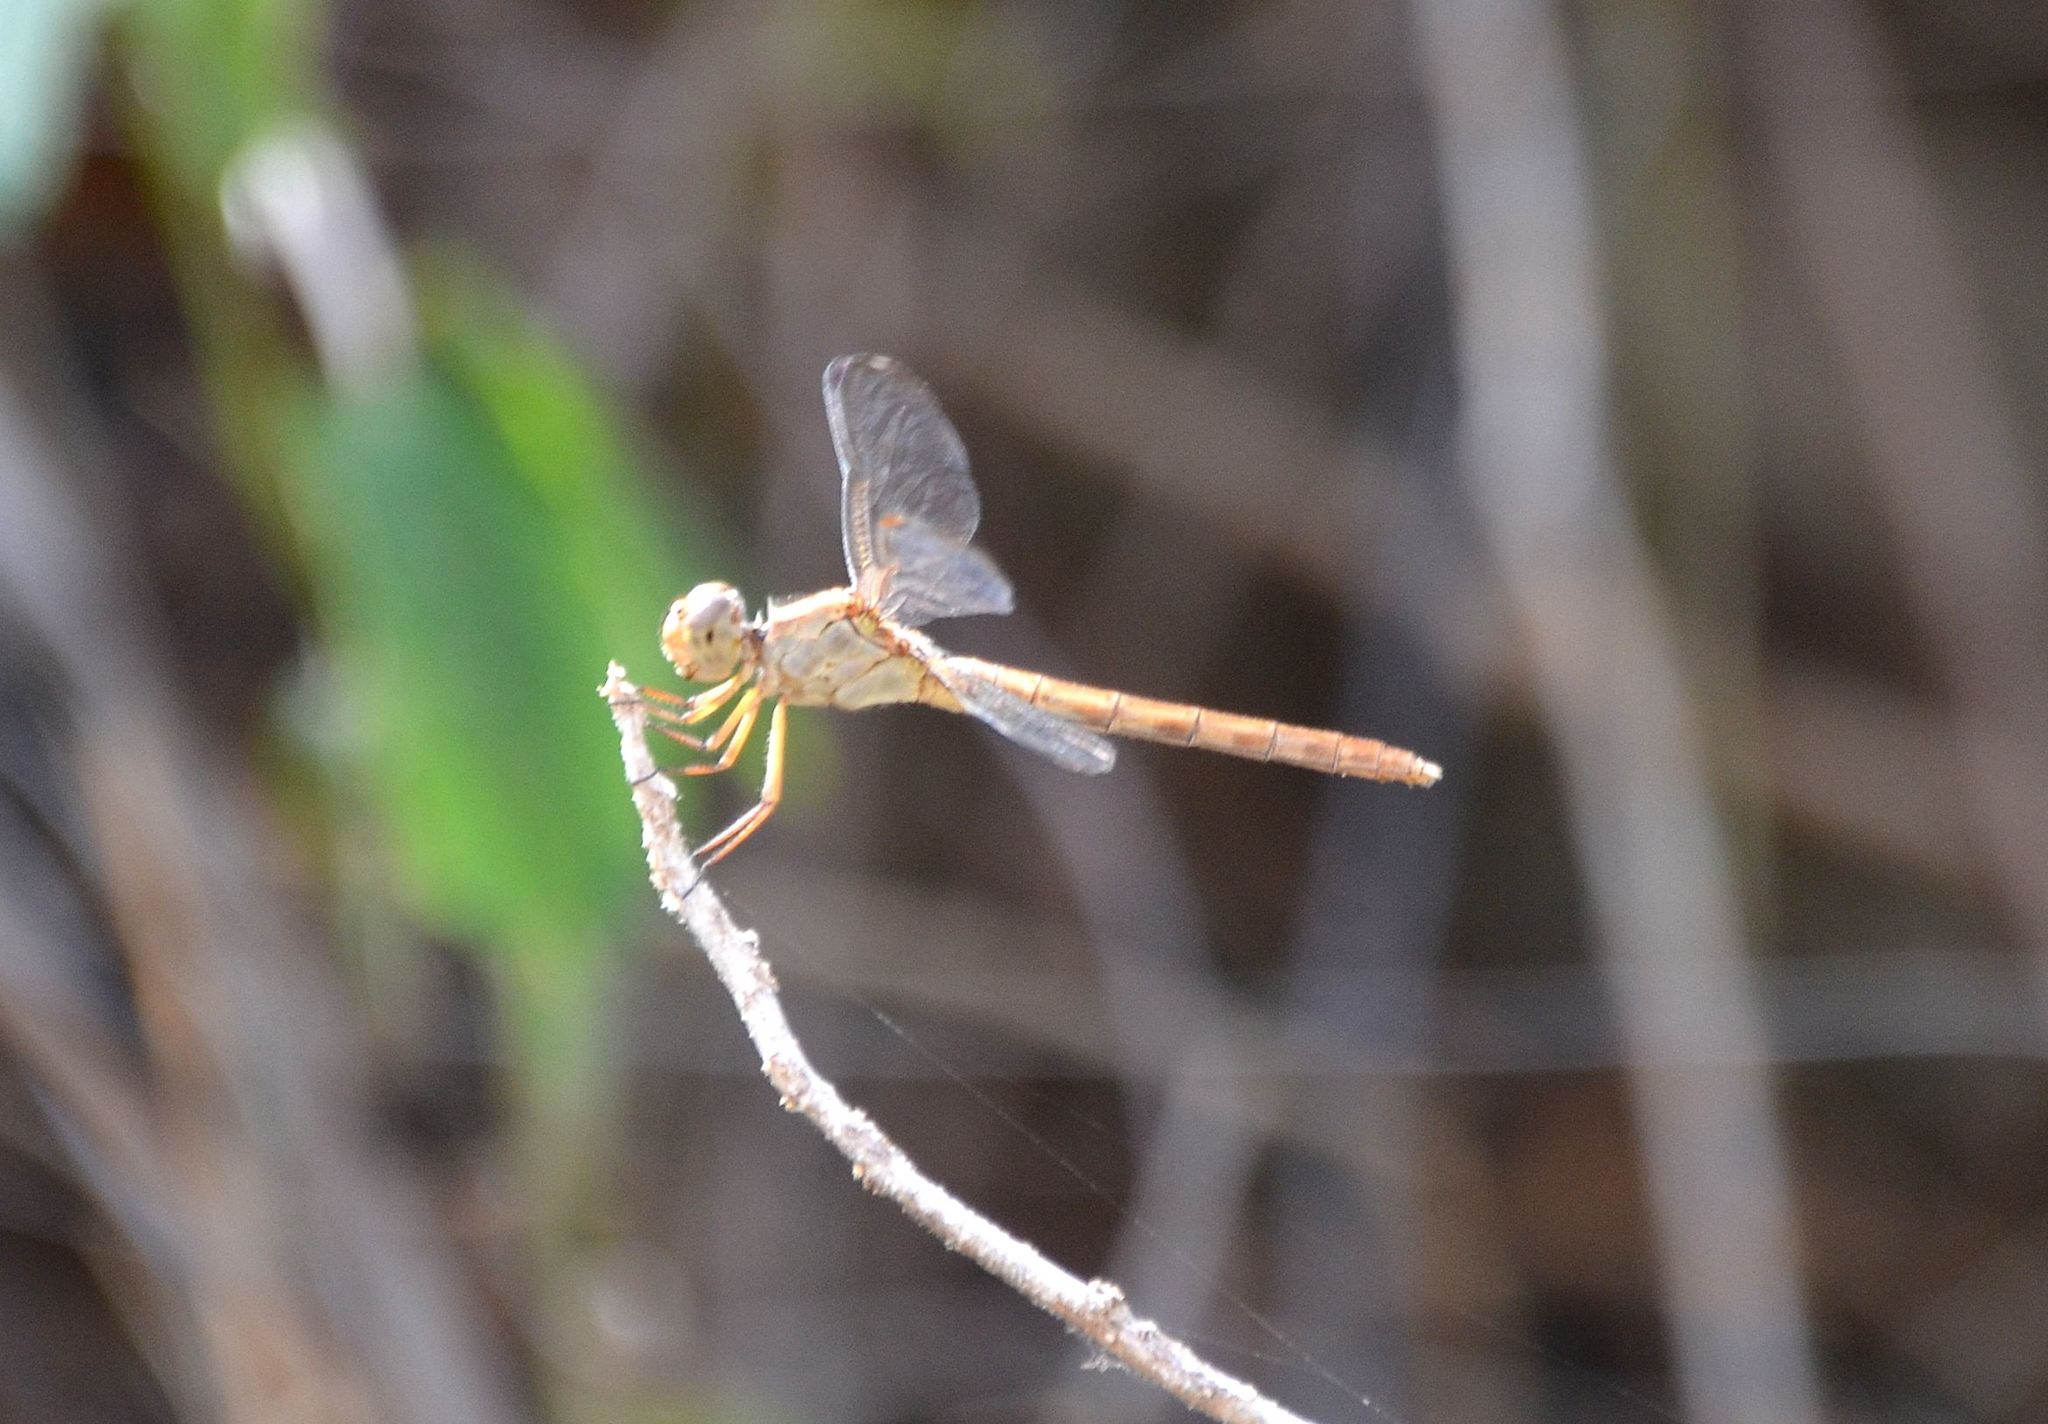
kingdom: Animalia
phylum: Arthropoda
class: Insecta
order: Odonata
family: Libellulidae
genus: Erythrodiplax
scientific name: Erythrodiplax funerea
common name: Black-winged dragonlet
